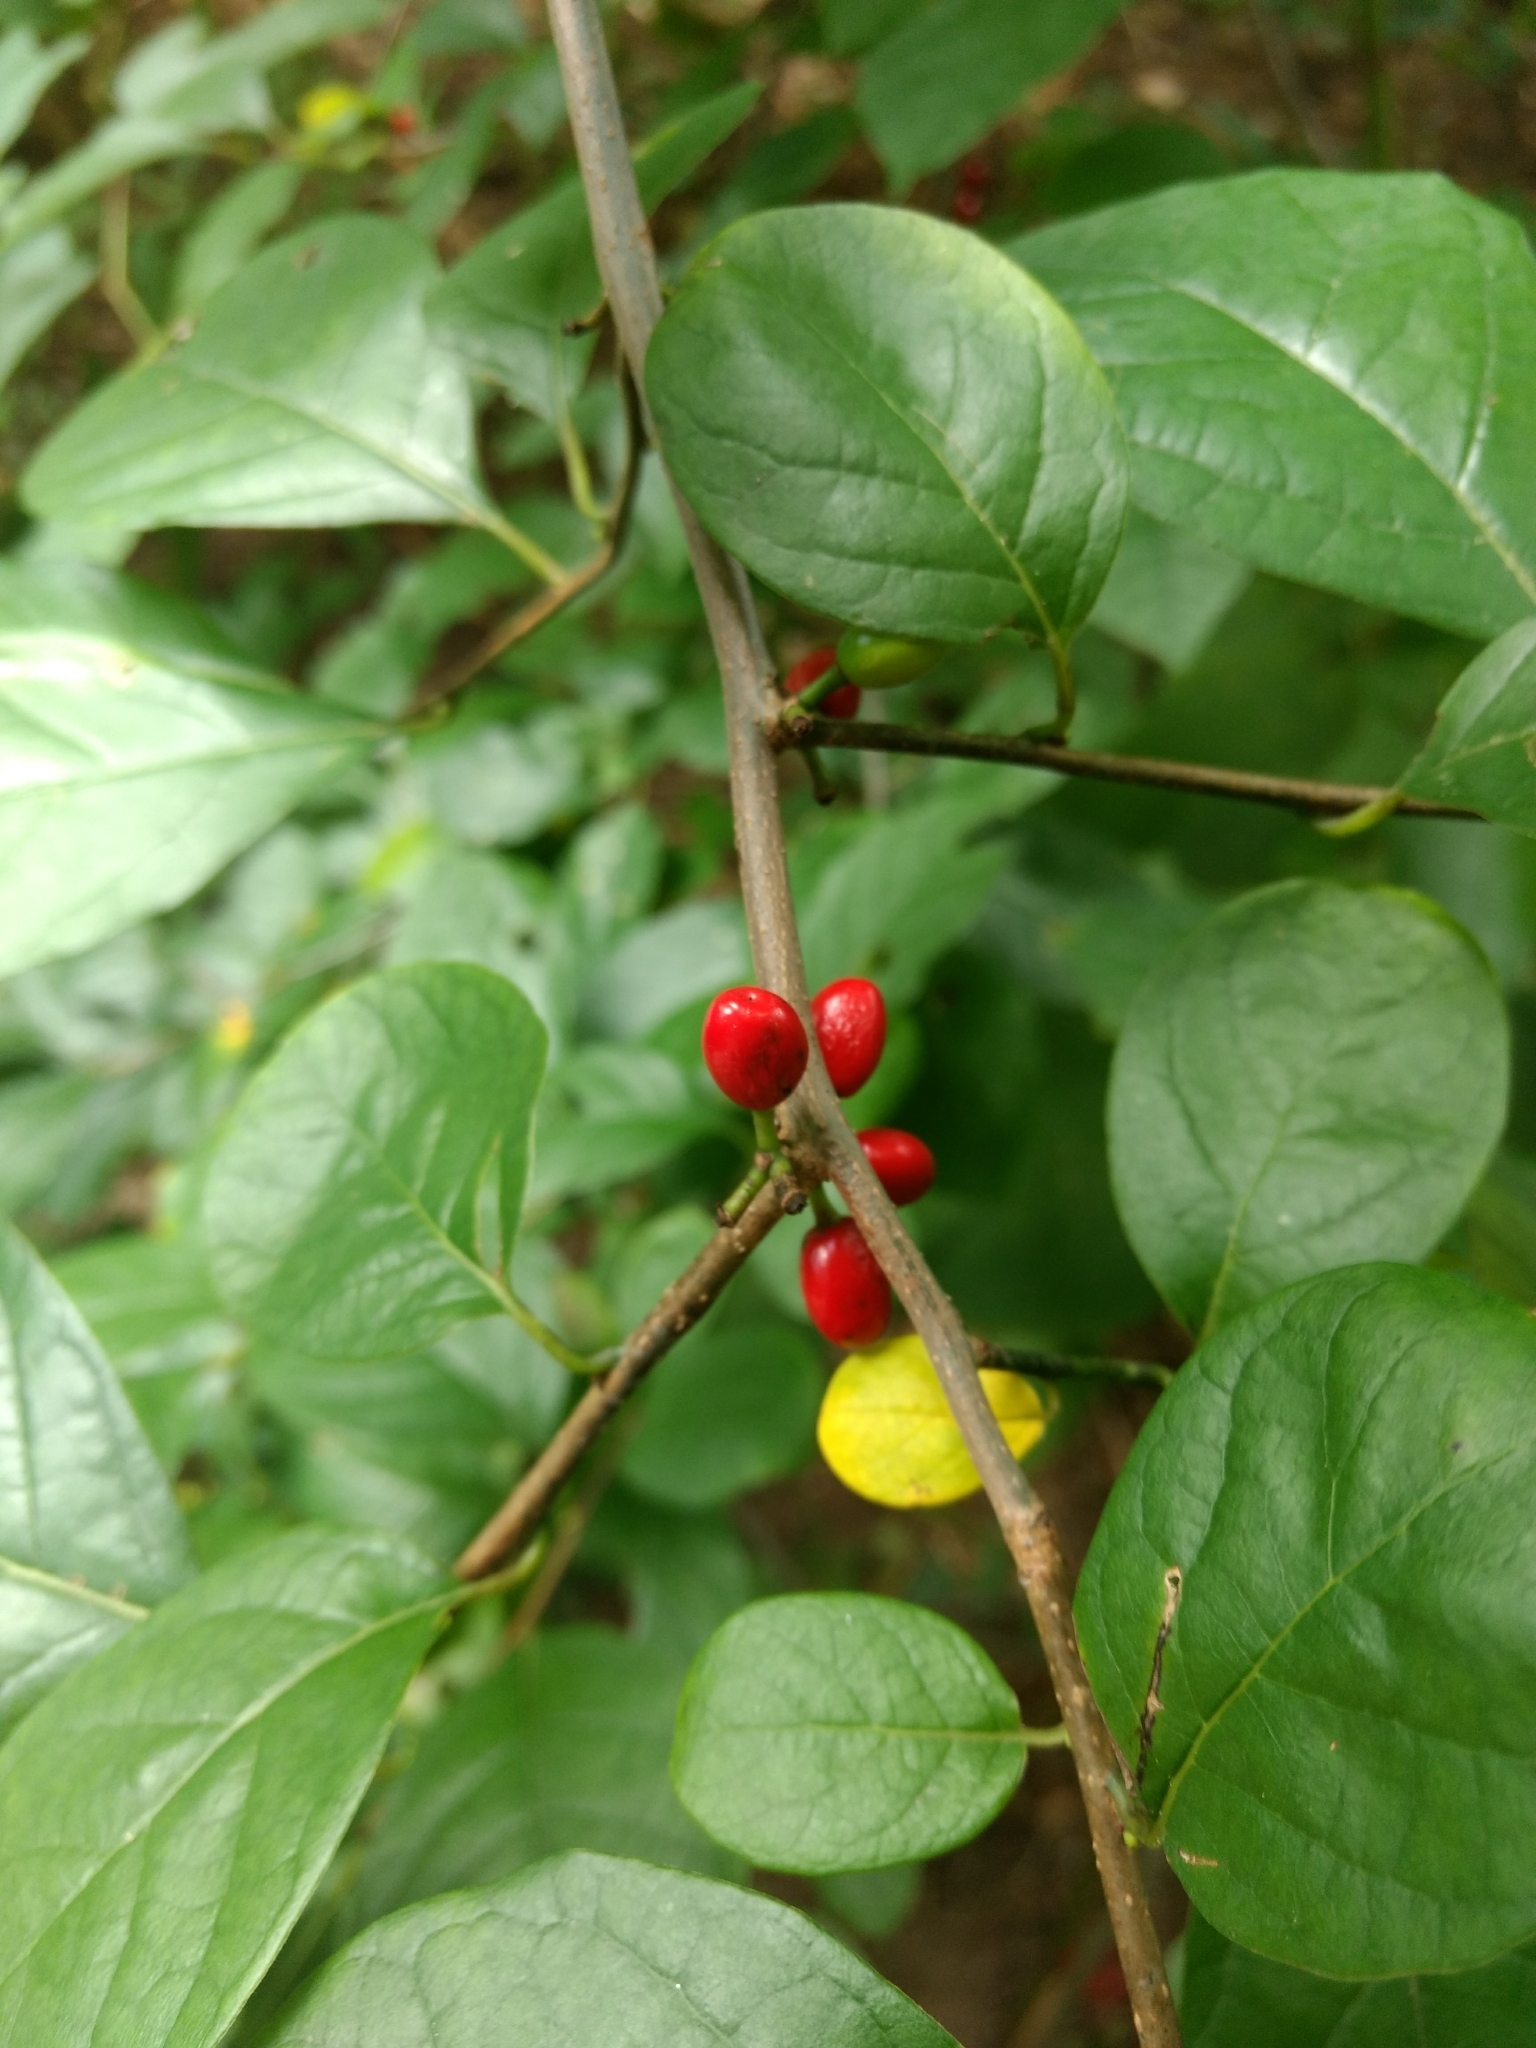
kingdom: Plantae
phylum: Tracheophyta
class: Magnoliopsida
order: Laurales
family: Lauraceae
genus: Lindera
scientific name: Lindera benzoin
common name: Spicebush
